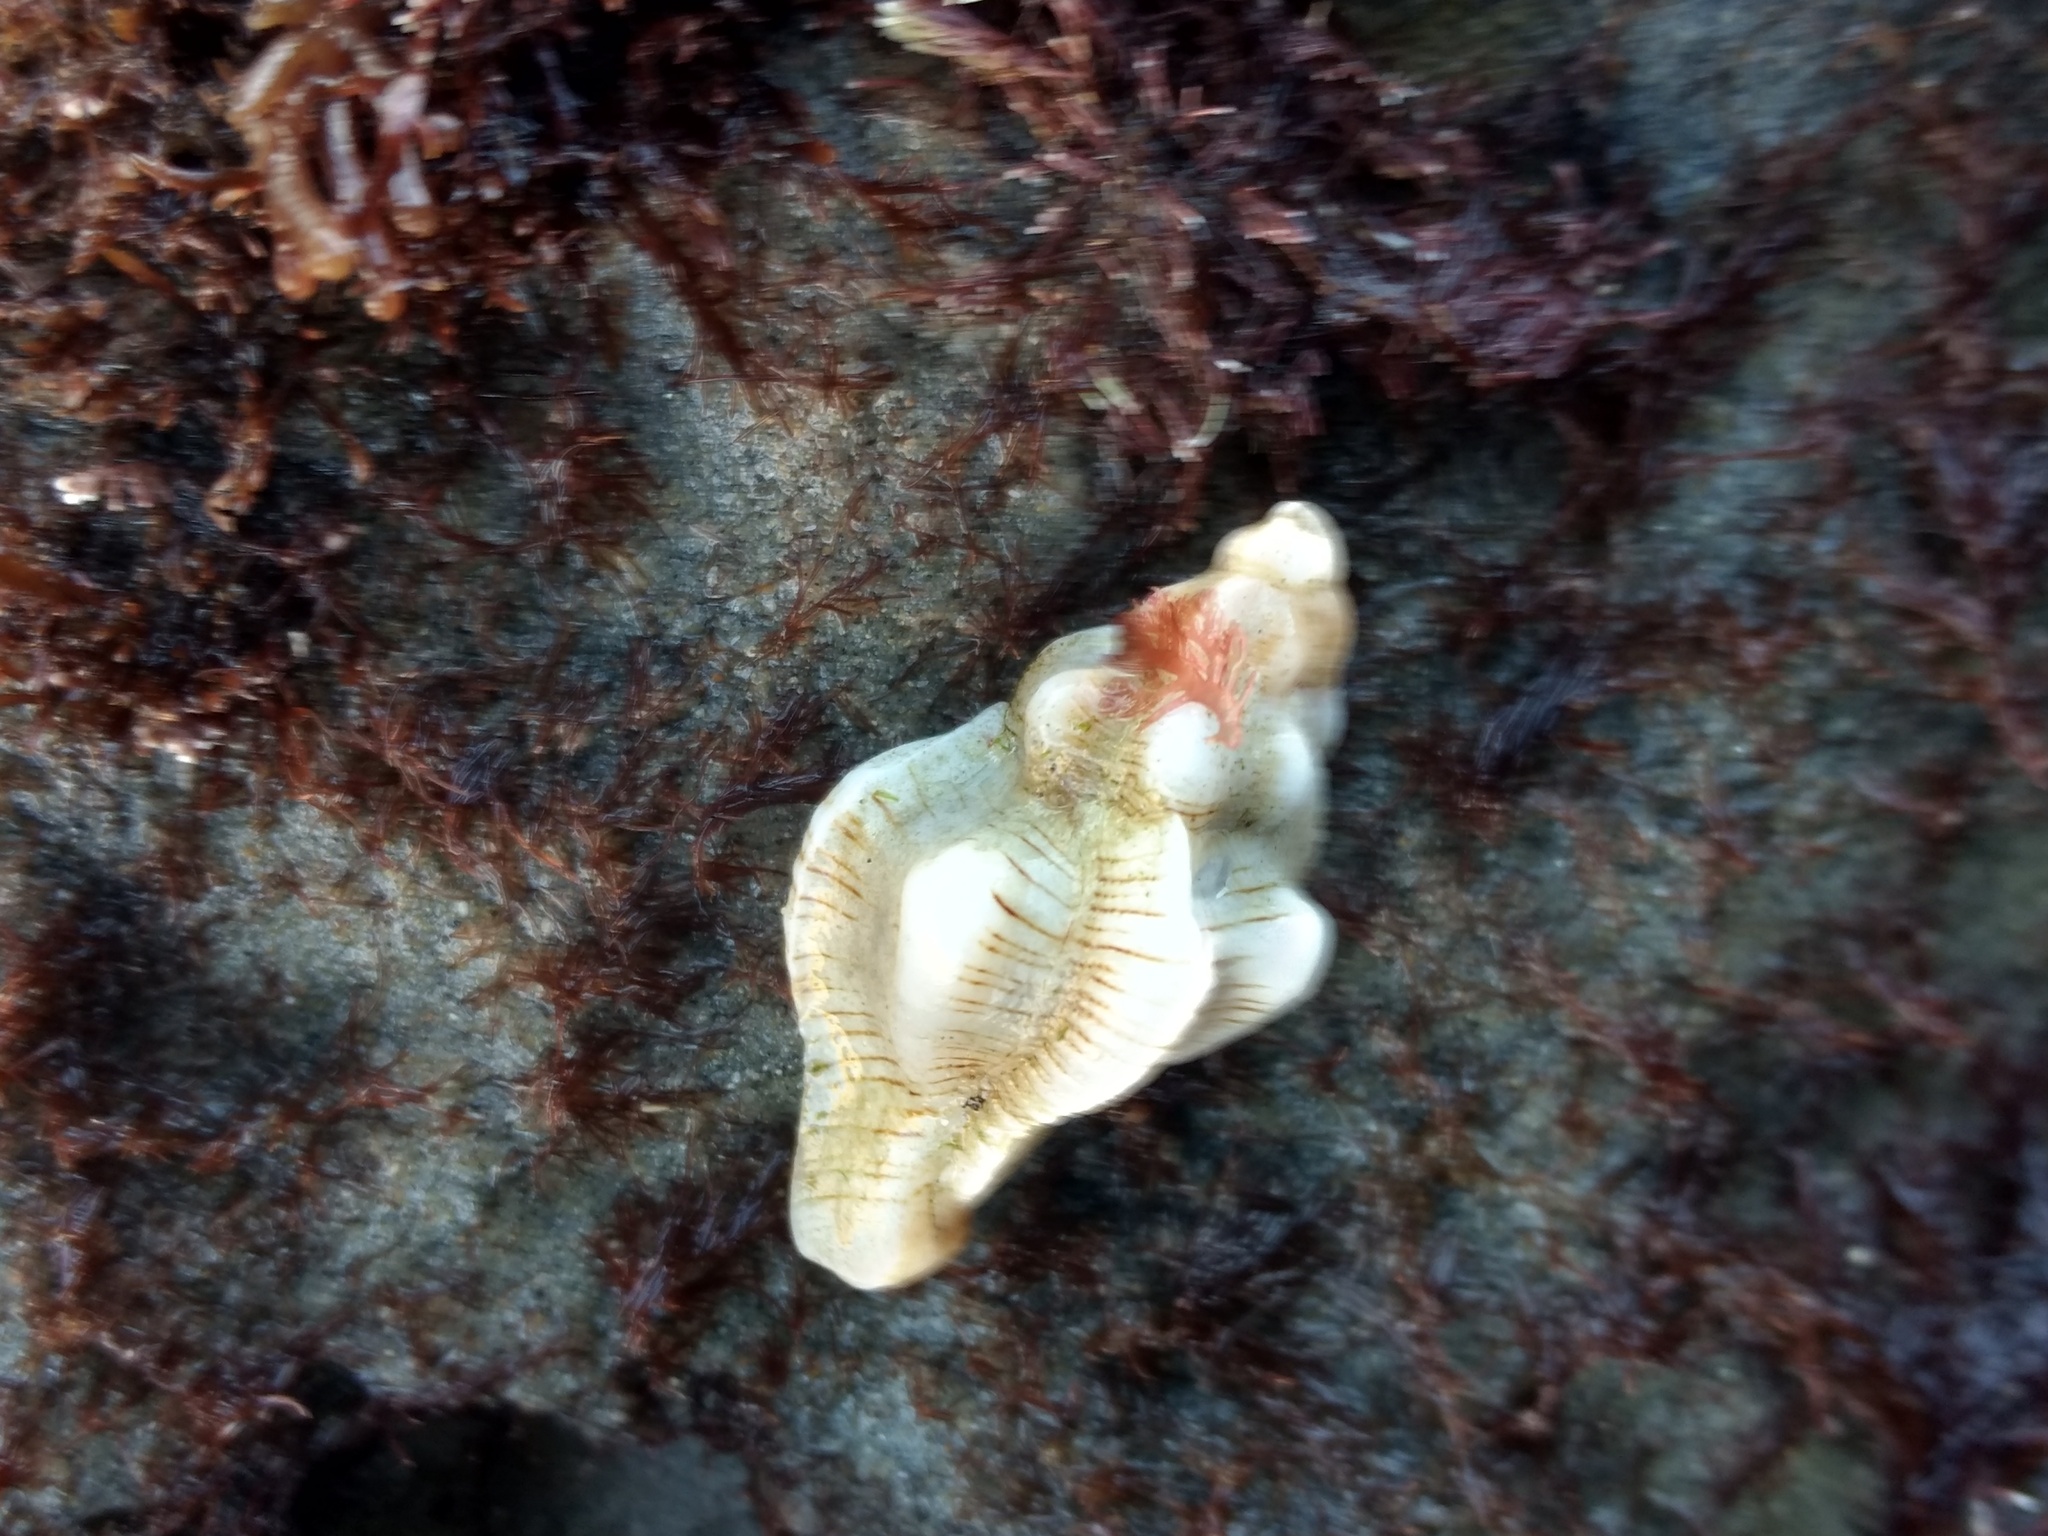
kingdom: Animalia
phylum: Mollusca
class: Gastropoda
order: Neogastropoda
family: Muricidae
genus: Pteropurpura
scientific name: Pteropurpura festiva
